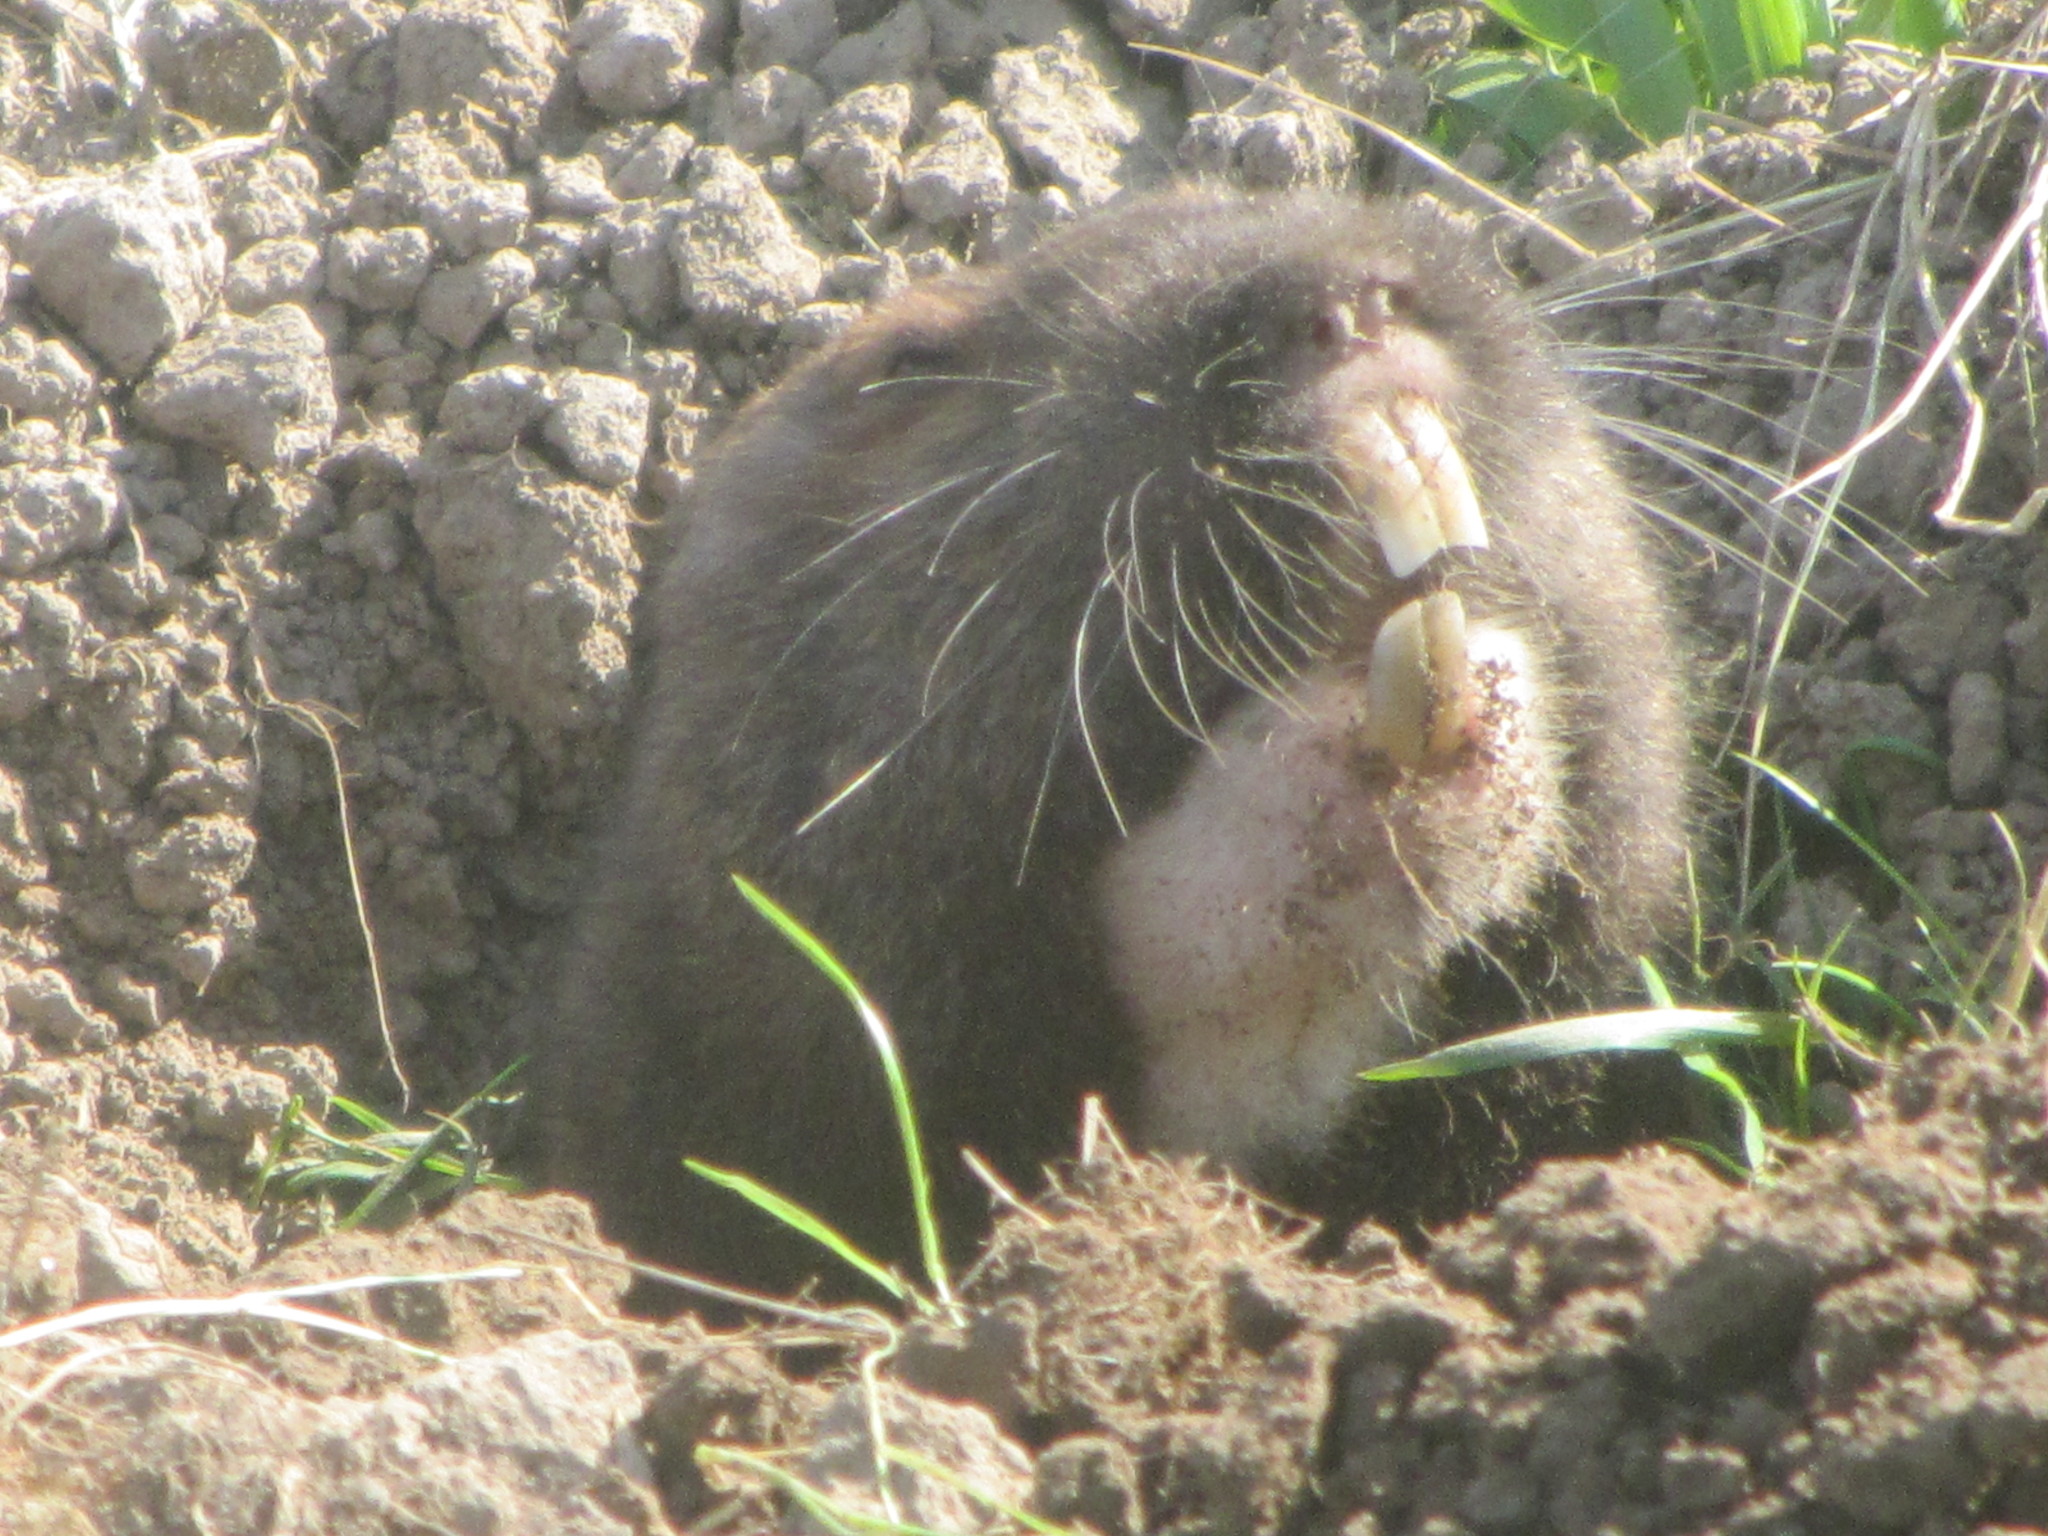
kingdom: Animalia
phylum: Chordata
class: Mammalia
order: Rodentia
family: Geomyidae
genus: Thomomys
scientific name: Thomomys bulbivorus
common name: Camas pocket gopher
